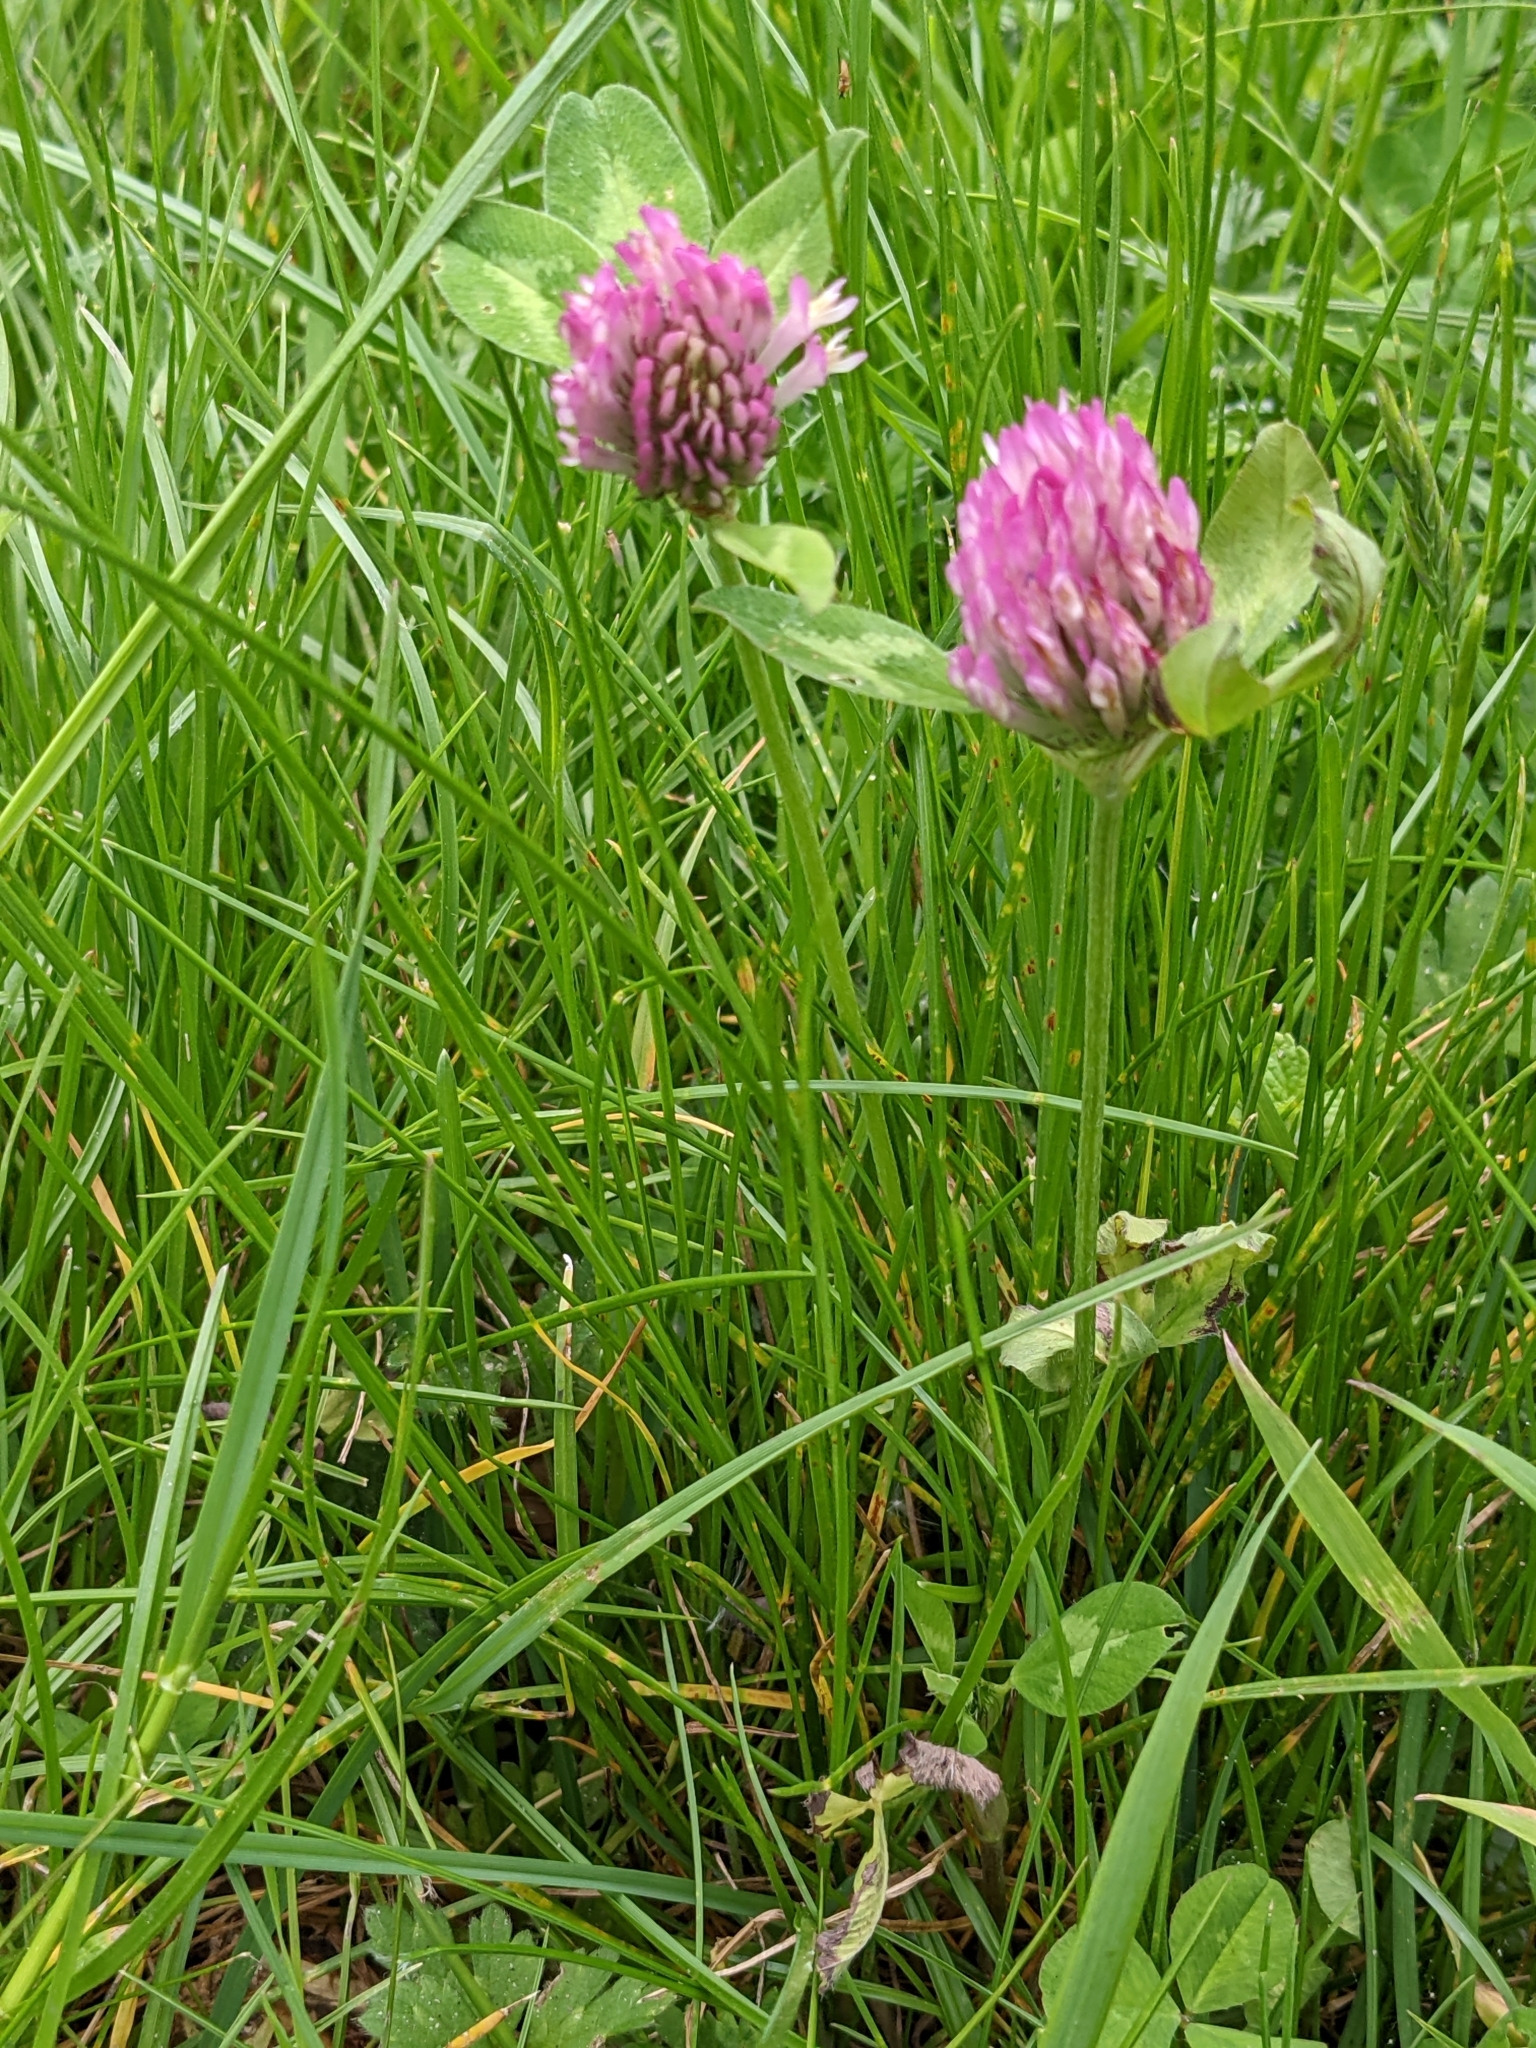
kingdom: Plantae
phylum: Tracheophyta
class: Magnoliopsida
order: Fabales
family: Fabaceae
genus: Trifolium
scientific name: Trifolium pratense
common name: Red clover
